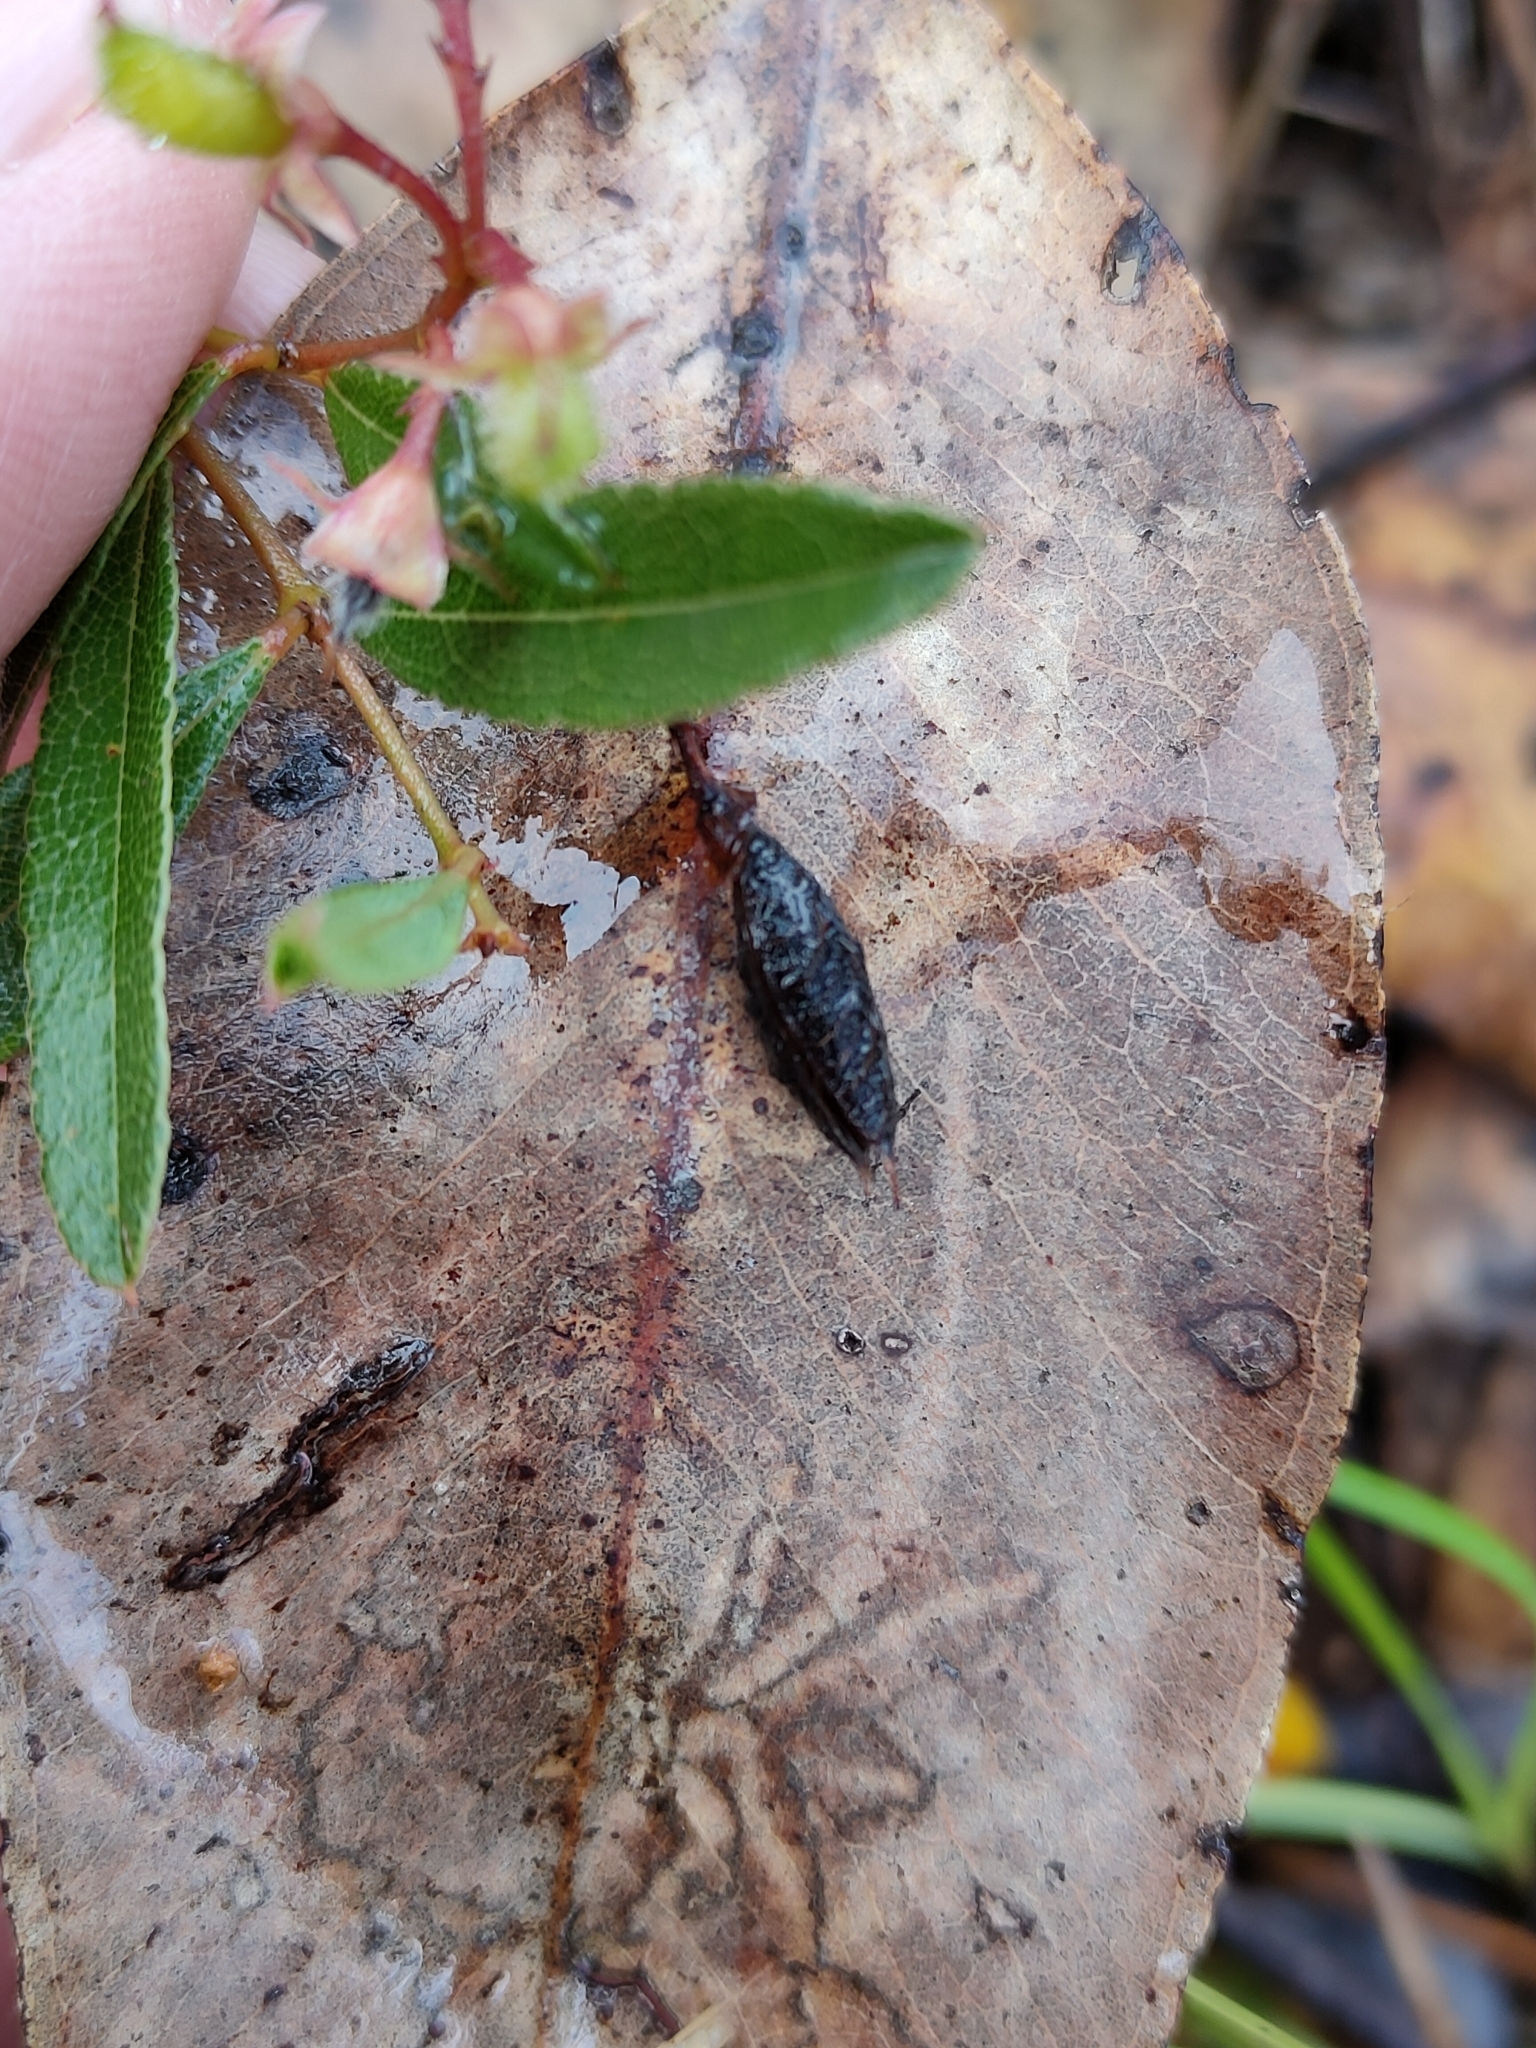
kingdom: Plantae
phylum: Tracheophyta
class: Magnoliopsida
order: Fabales
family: Fabaceae
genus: Podolobium
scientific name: Podolobium scandens
